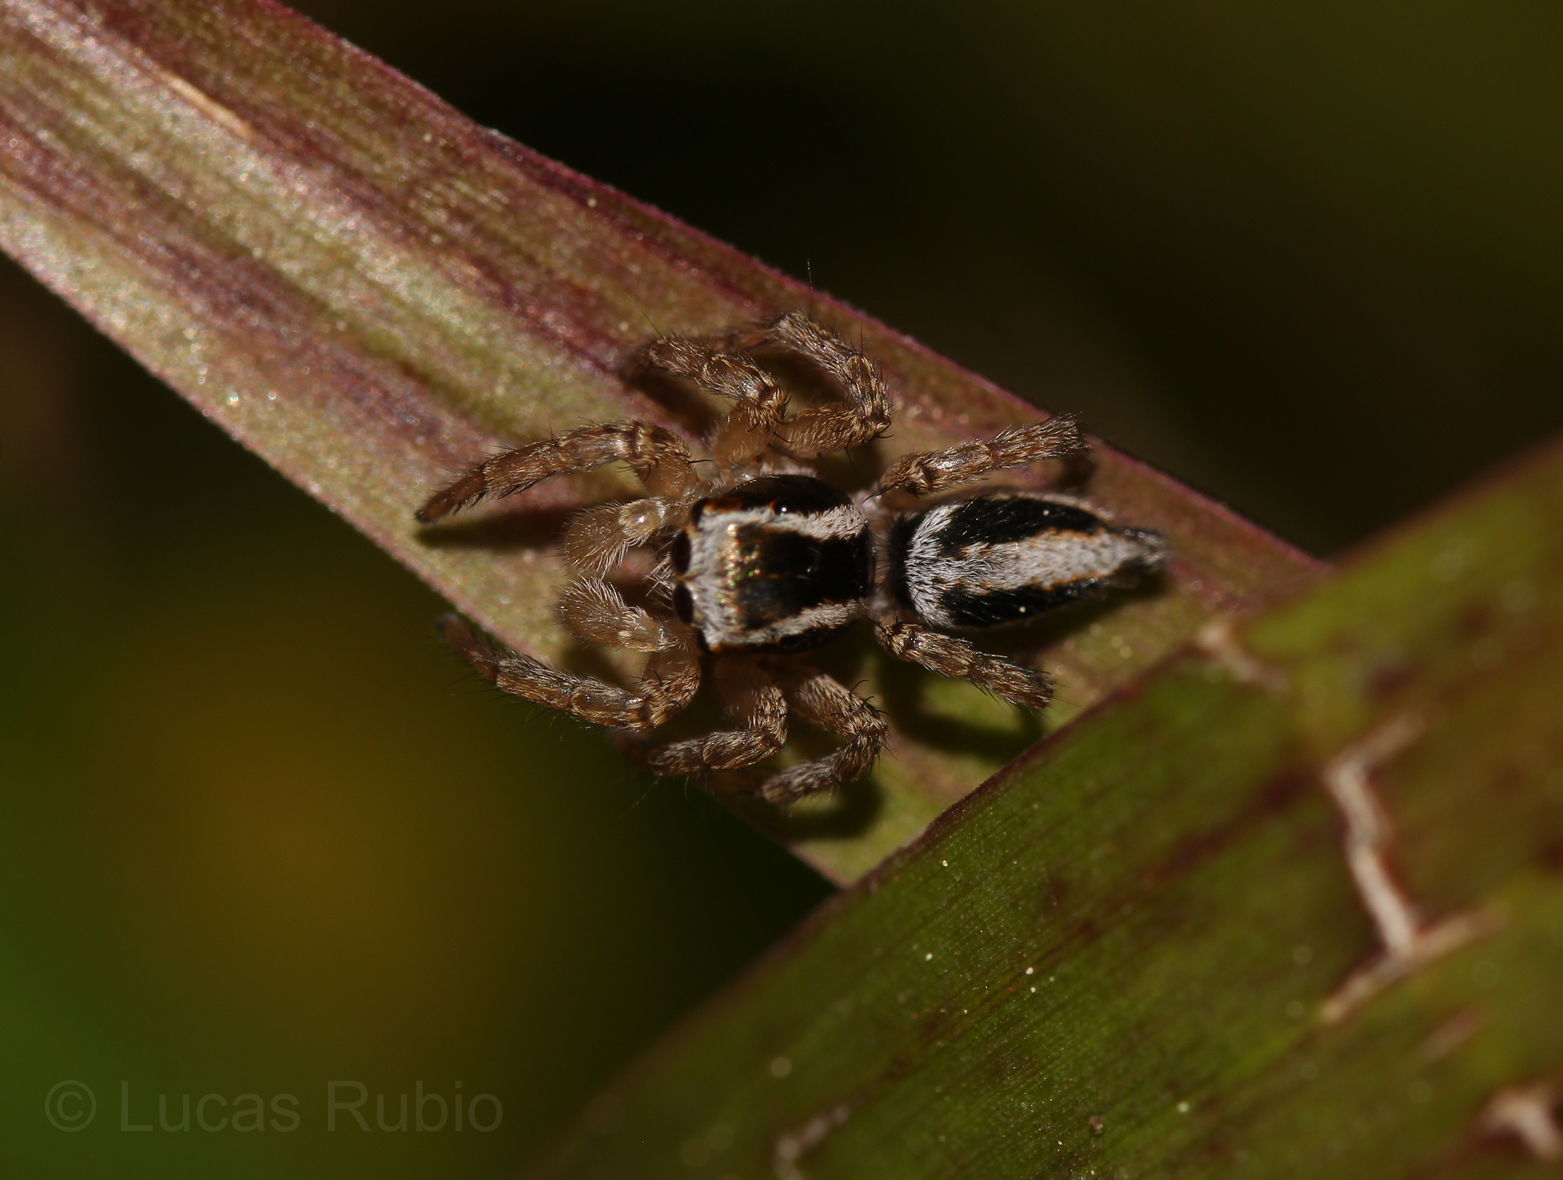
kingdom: Animalia
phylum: Arthropoda
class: Arachnida
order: Araneae
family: Salticidae
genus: Aphirape
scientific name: Aphirape
